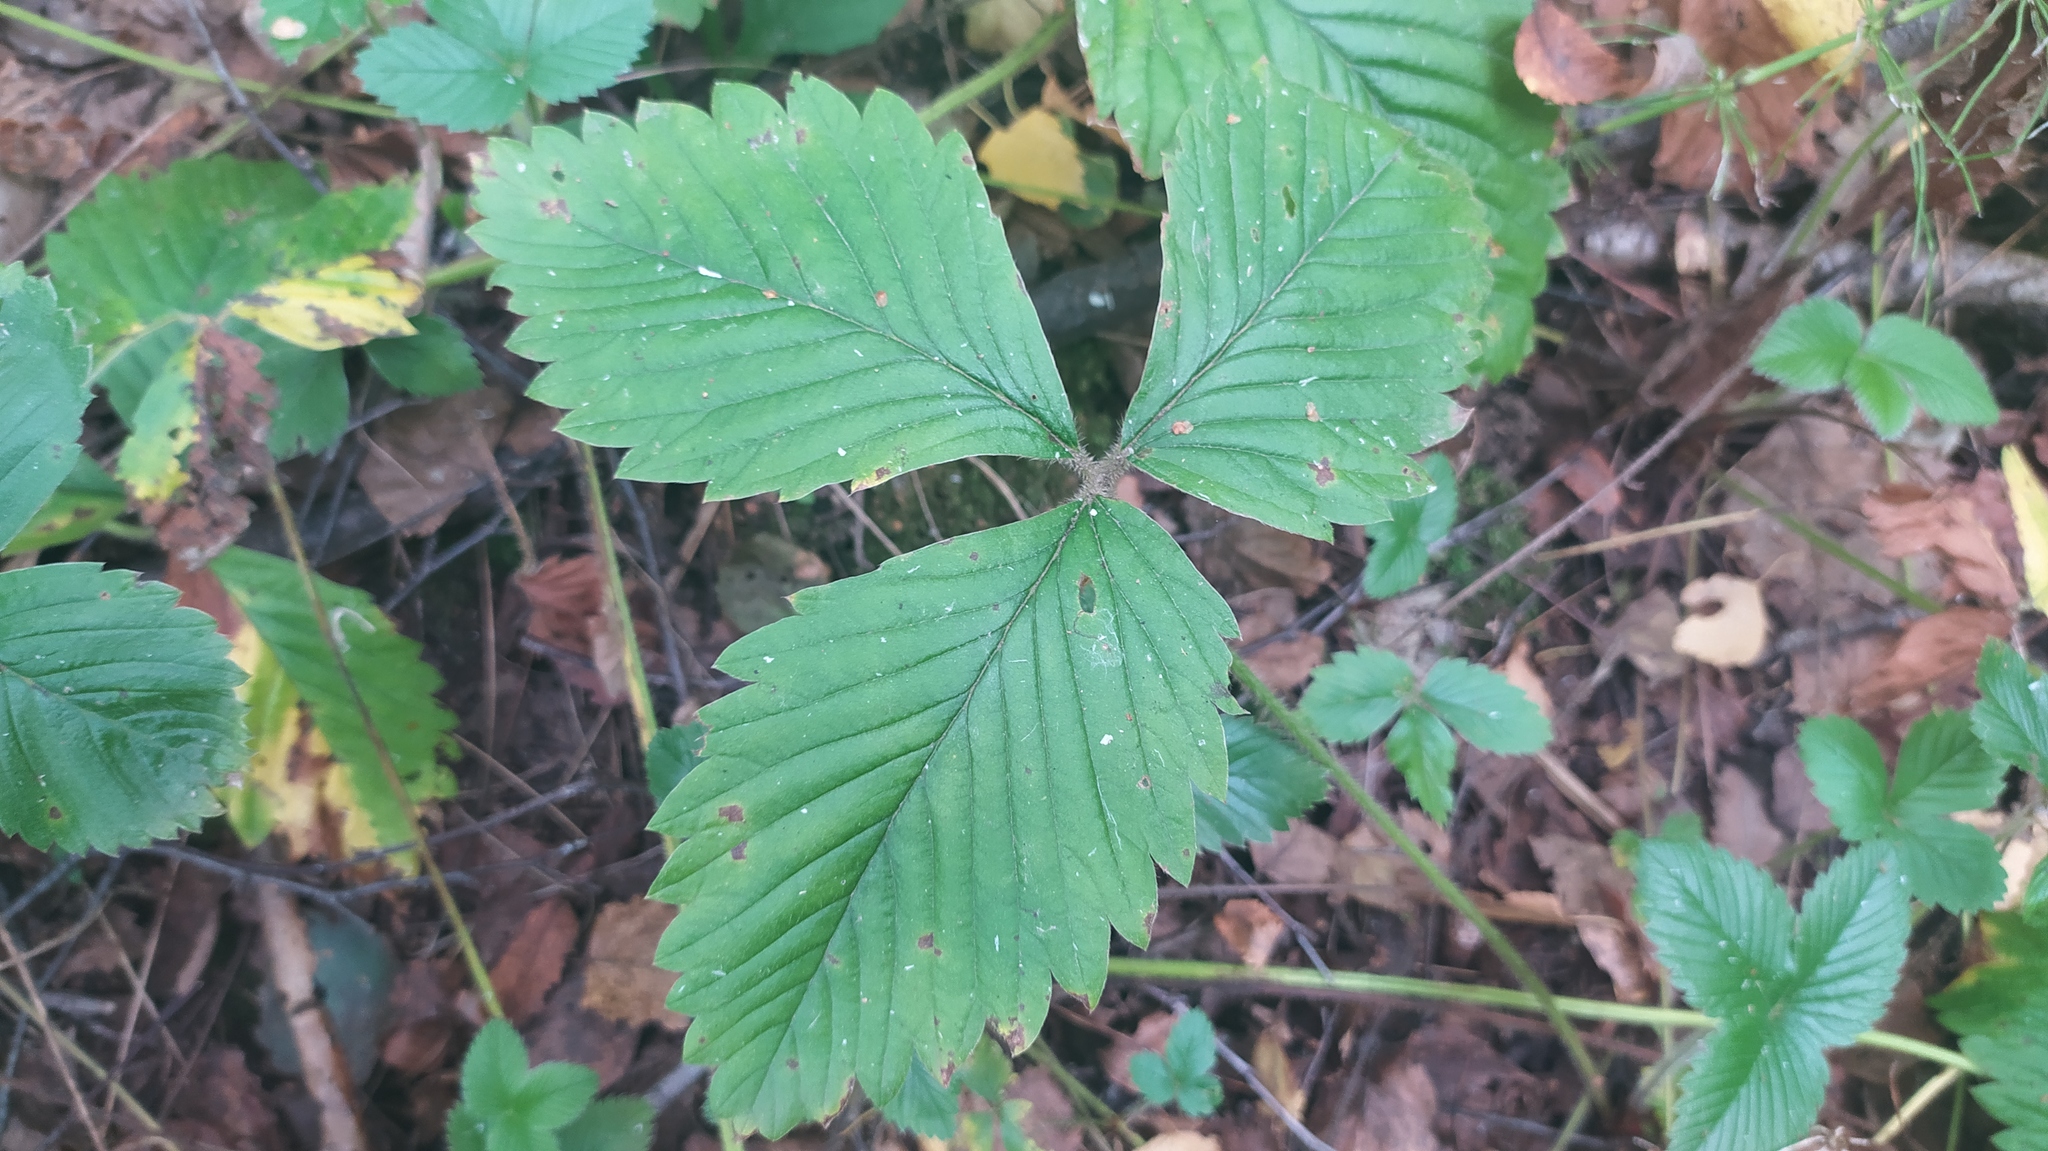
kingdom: Plantae
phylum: Tracheophyta
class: Magnoliopsida
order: Rosales
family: Rosaceae
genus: Fragaria
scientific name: Fragaria moschata
